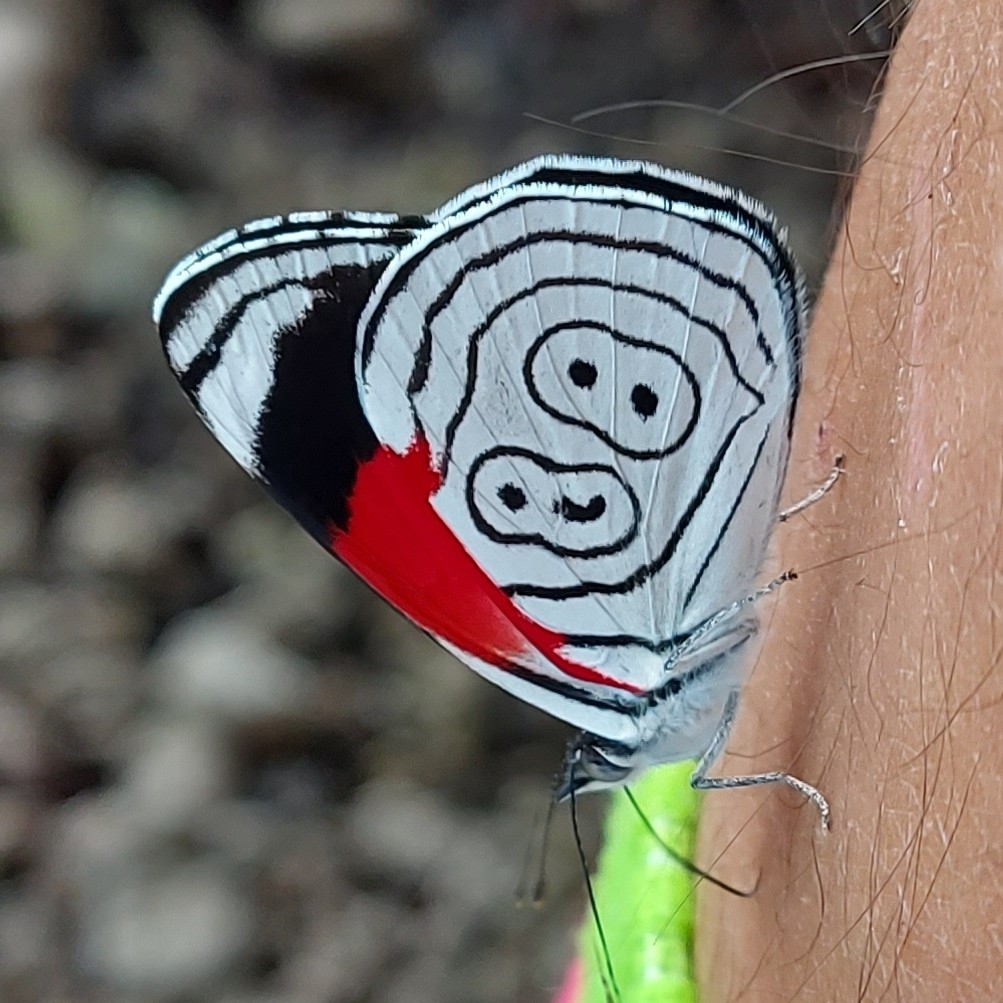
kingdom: Animalia
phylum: Arthropoda
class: Insecta
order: Lepidoptera
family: Nymphalidae
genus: Diaethria
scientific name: Diaethria anna
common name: Anna’s eighty-eight
